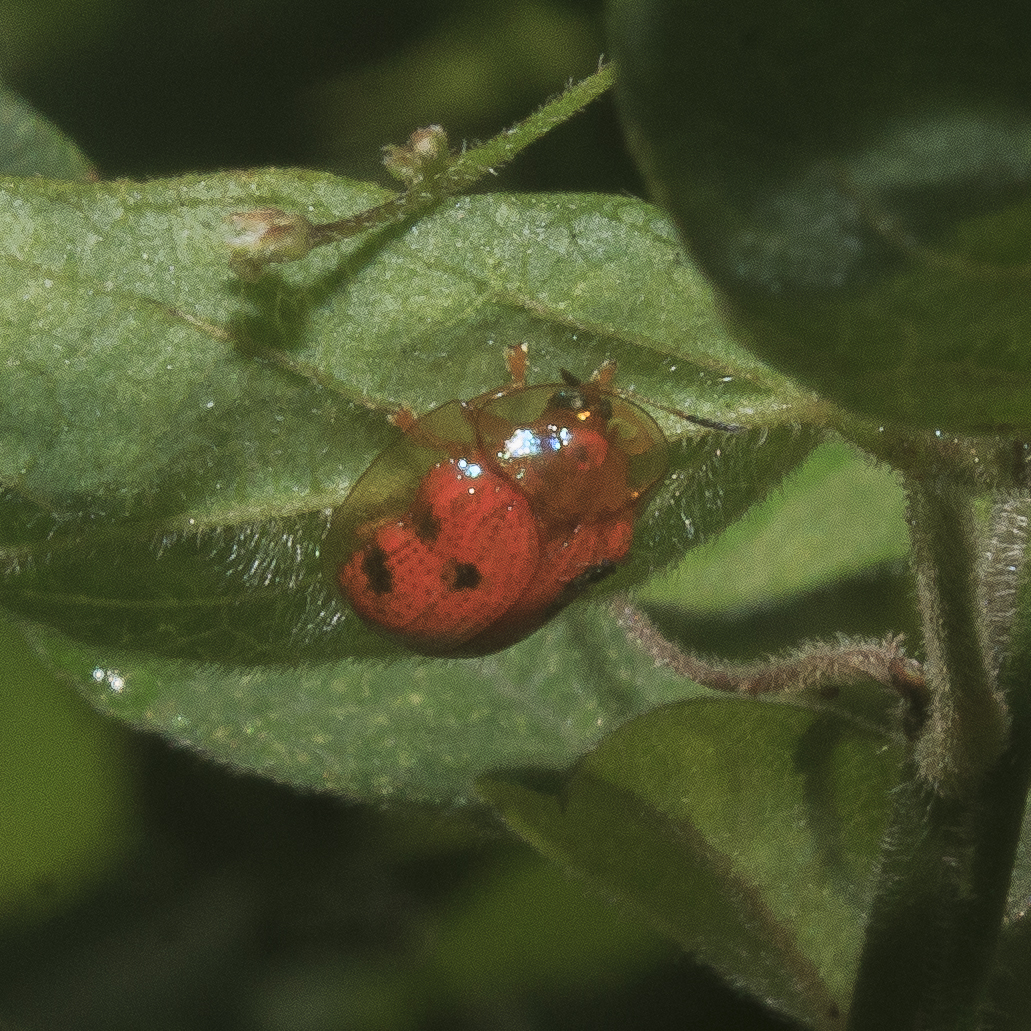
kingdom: Animalia
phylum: Arthropoda
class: Insecta
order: Coleoptera
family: Chrysomelidae
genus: Charidotella
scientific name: Charidotella sexpunctata
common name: Golden tortoise beetle
